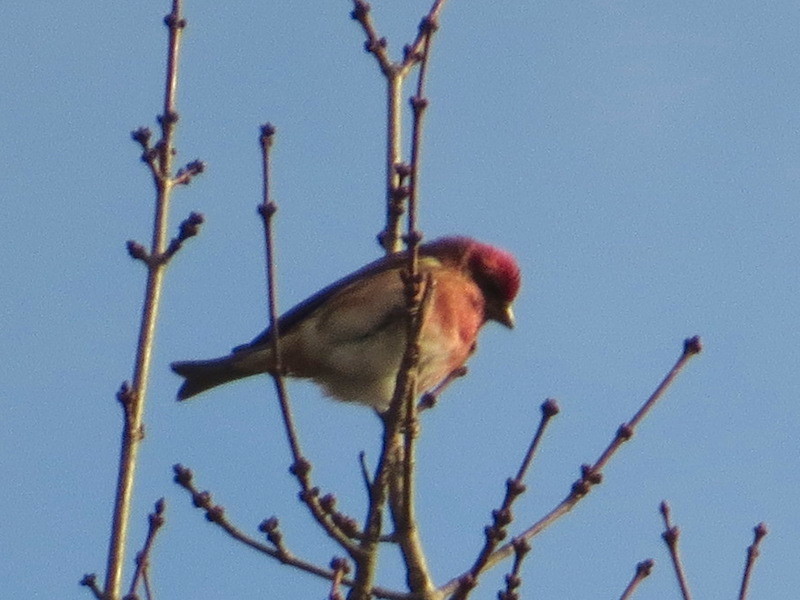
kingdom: Animalia
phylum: Chordata
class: Aves
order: Passeriformes
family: Fringillidae
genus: Haemorhous
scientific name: Haemorhous purpureus
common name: Purple finch
